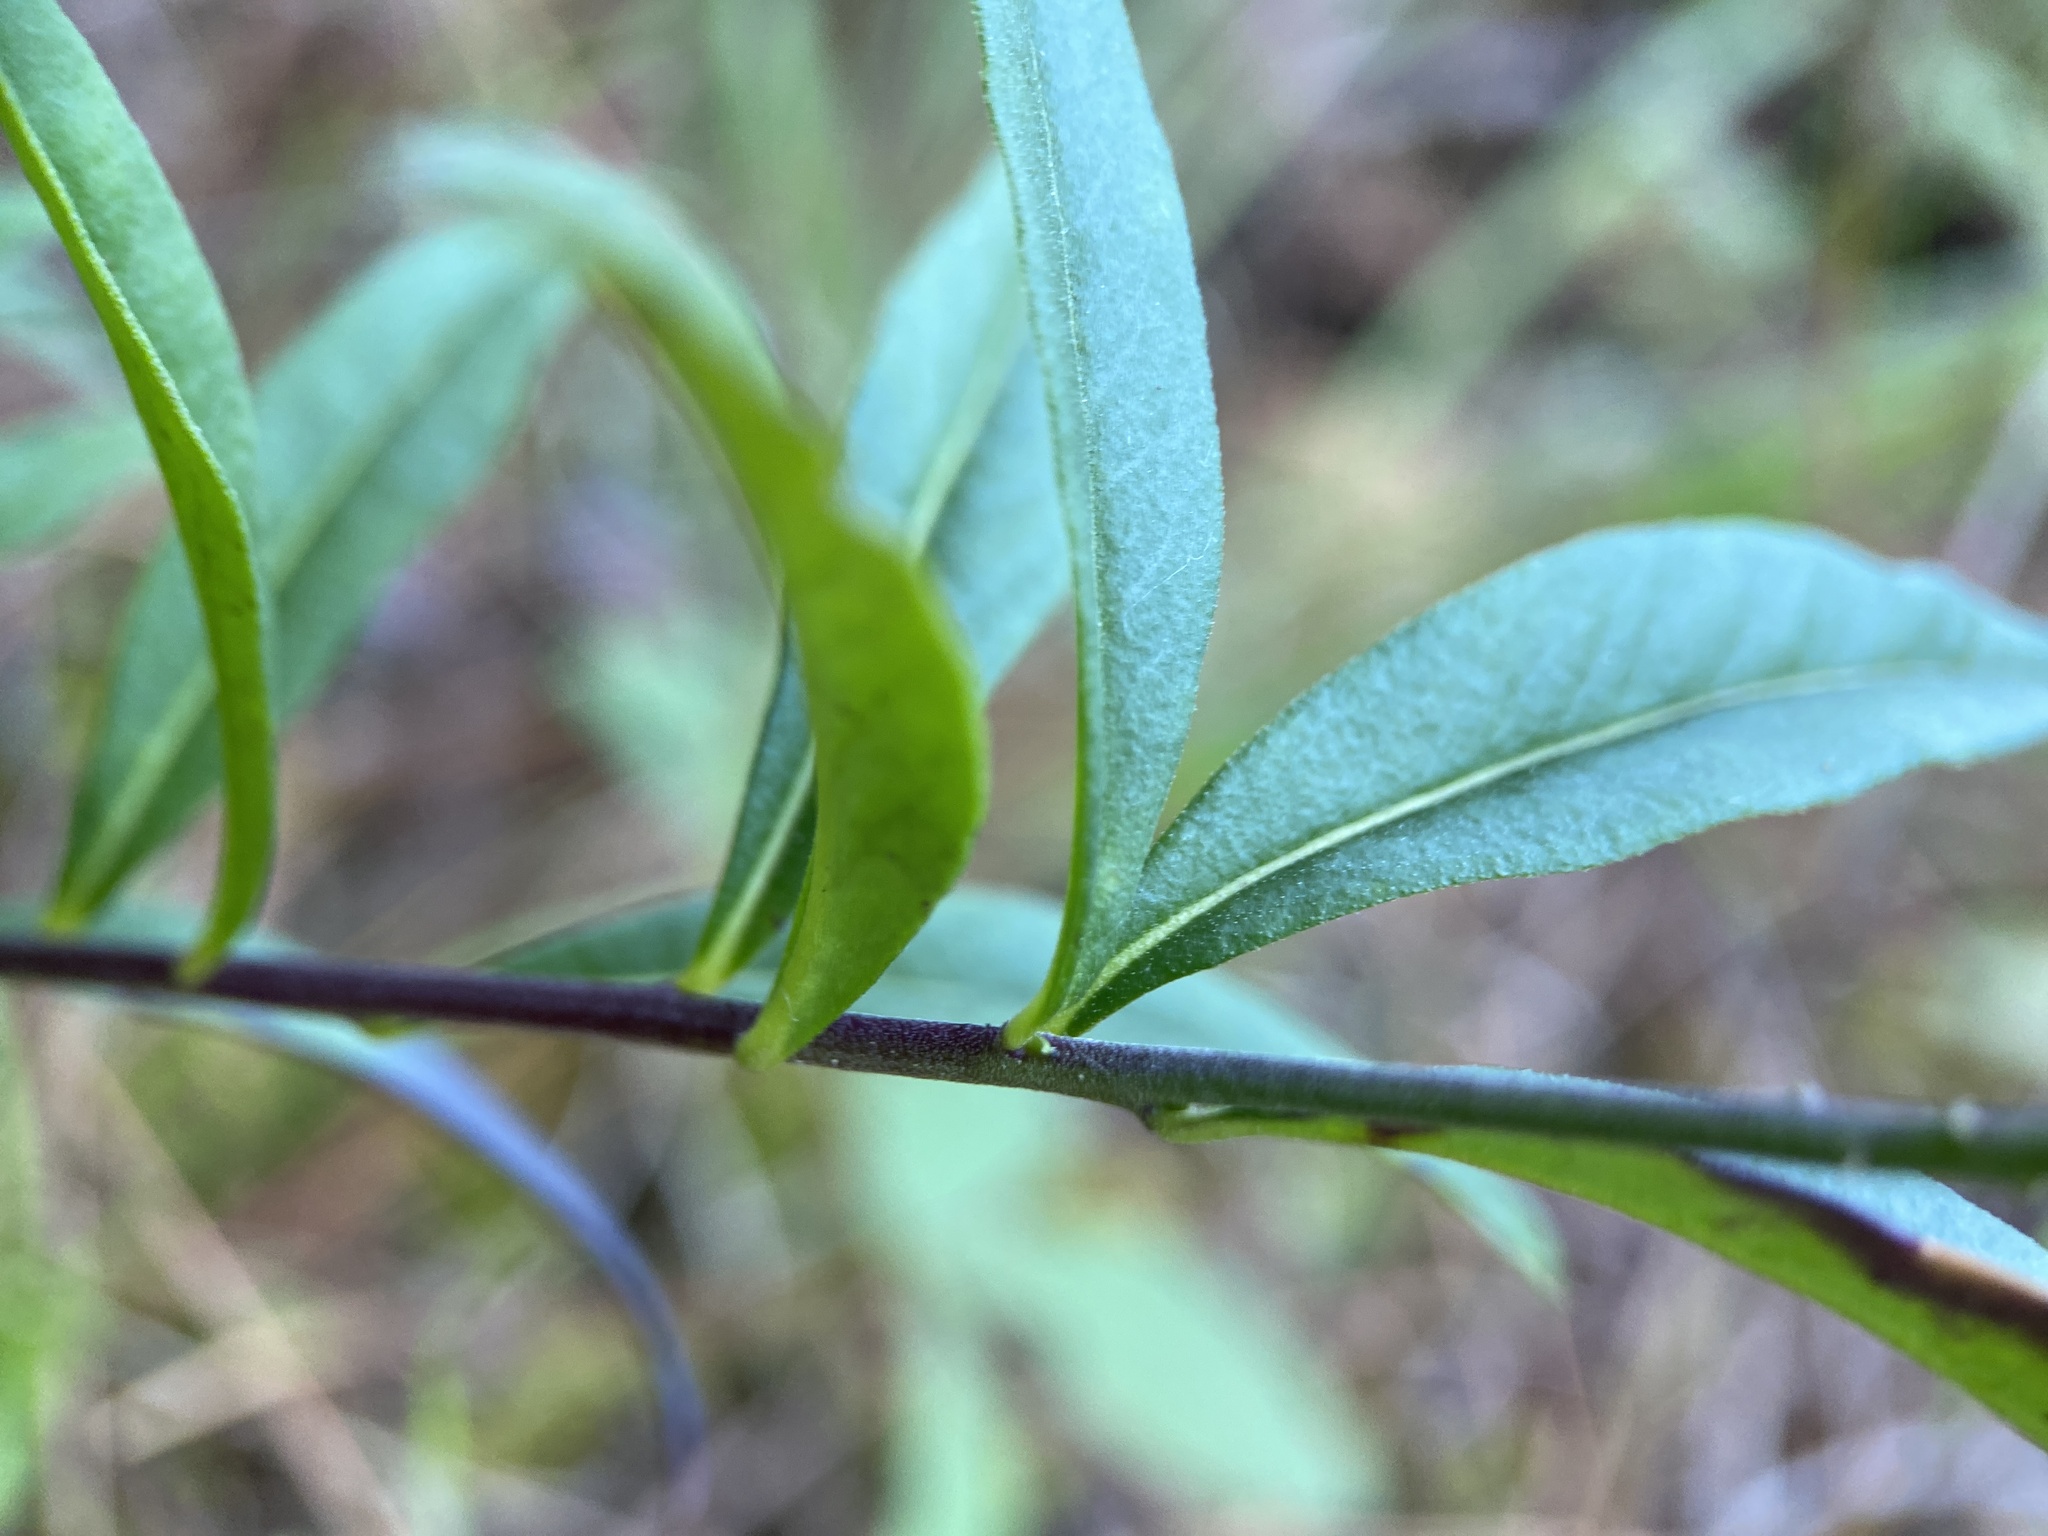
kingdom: Plantae
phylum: Tracheophyta
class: Magnoliopsida
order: Fabales
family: Polygalaceae
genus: Polygala
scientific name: Polygala senega
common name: Seneca snakeroot
